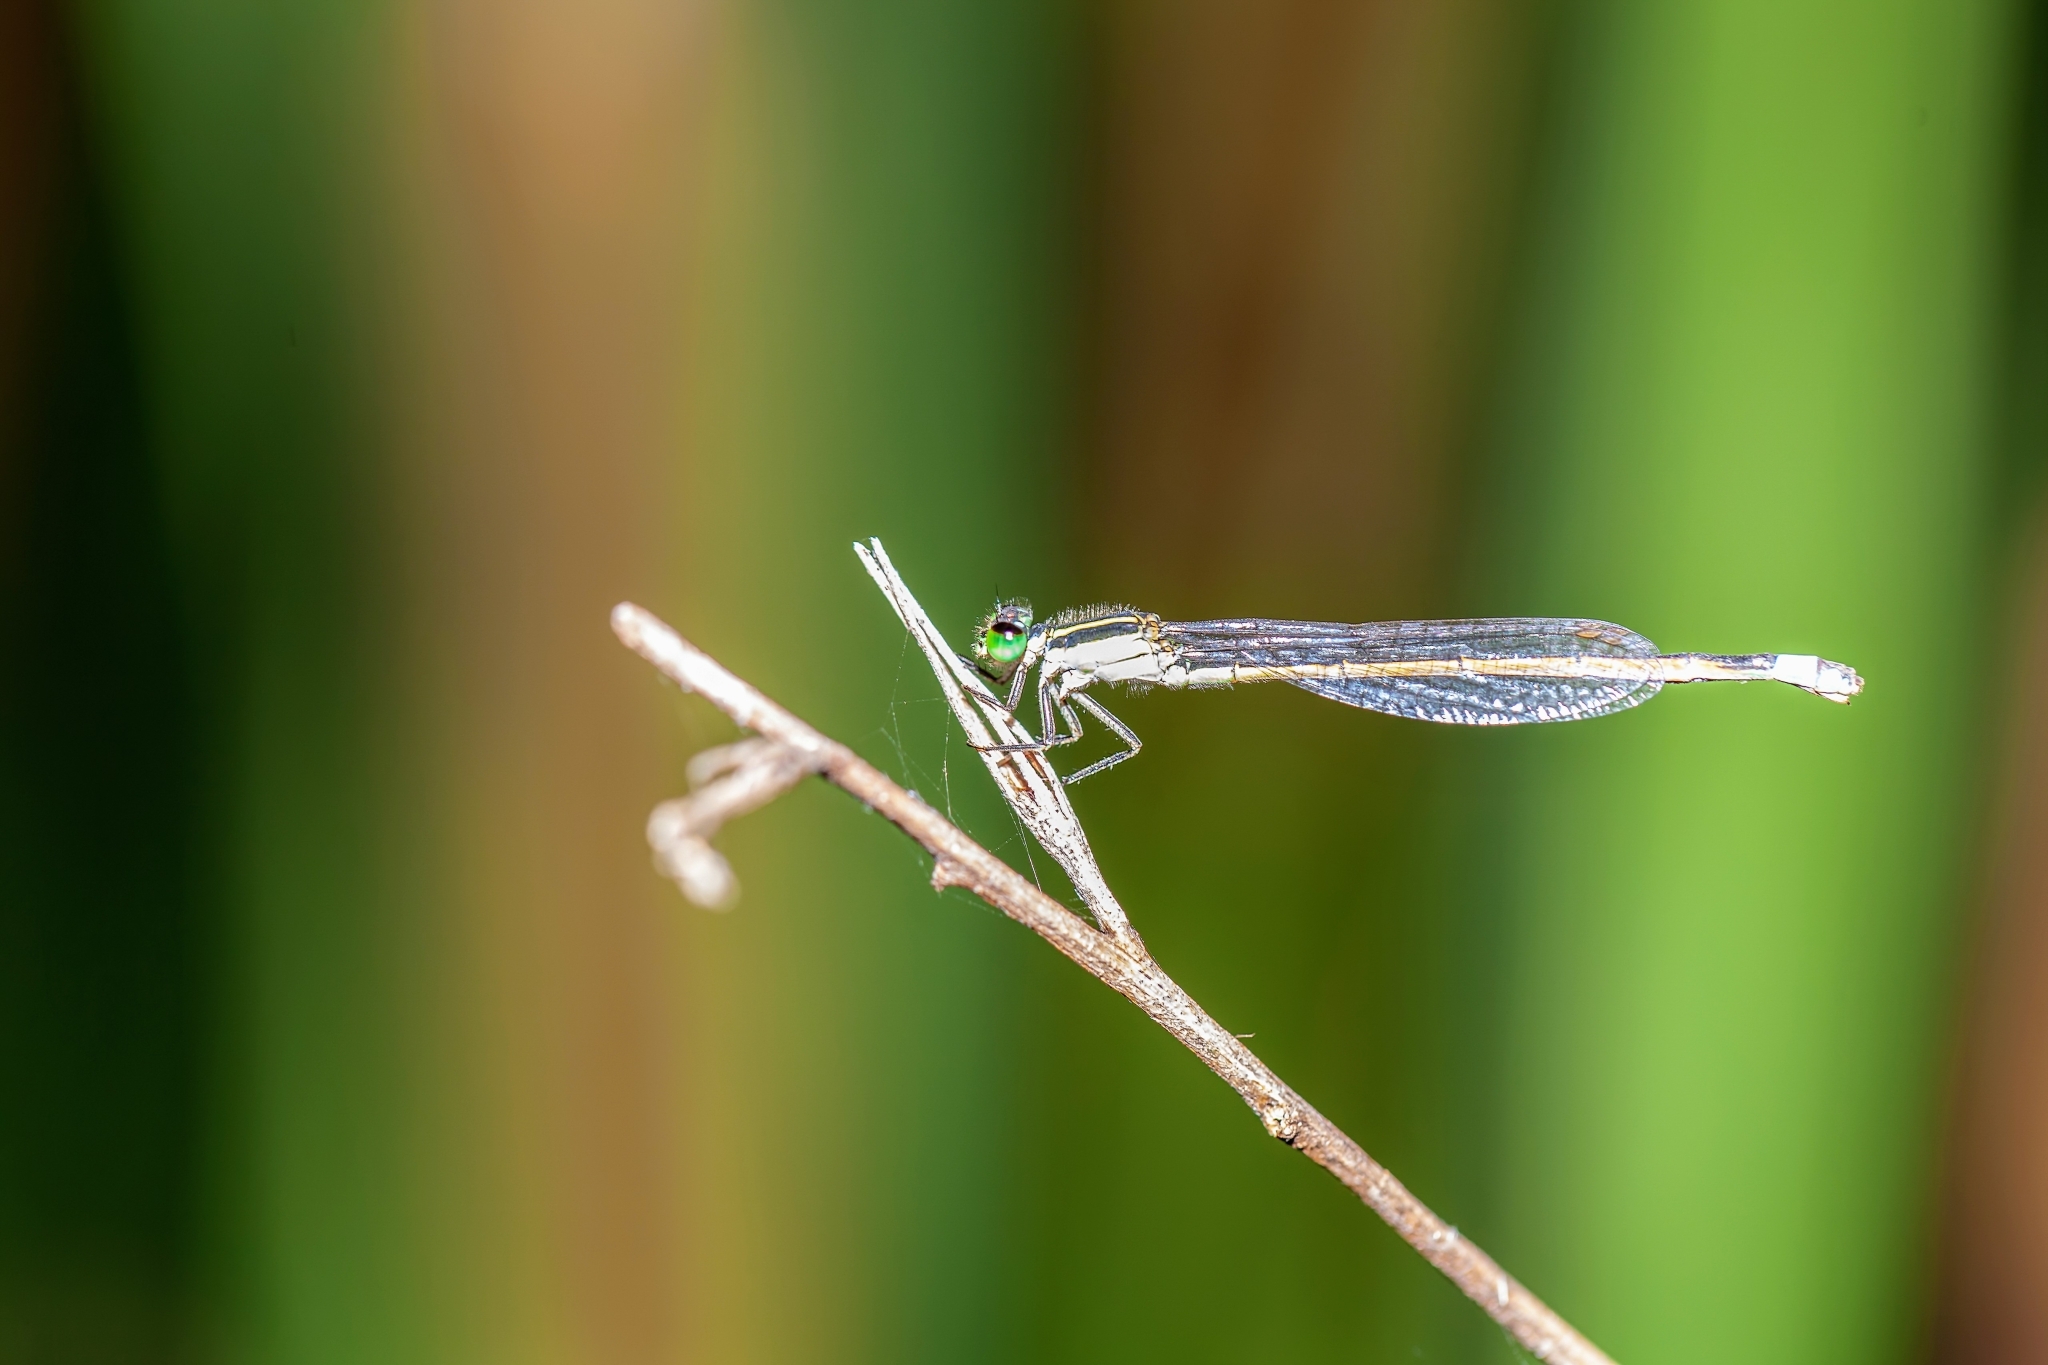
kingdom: Animalia
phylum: Arthropoda
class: Insecta
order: Odonata
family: Coenagrionidae
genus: Ischnura
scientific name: Ischnura ramburii
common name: Rambur's forktail
